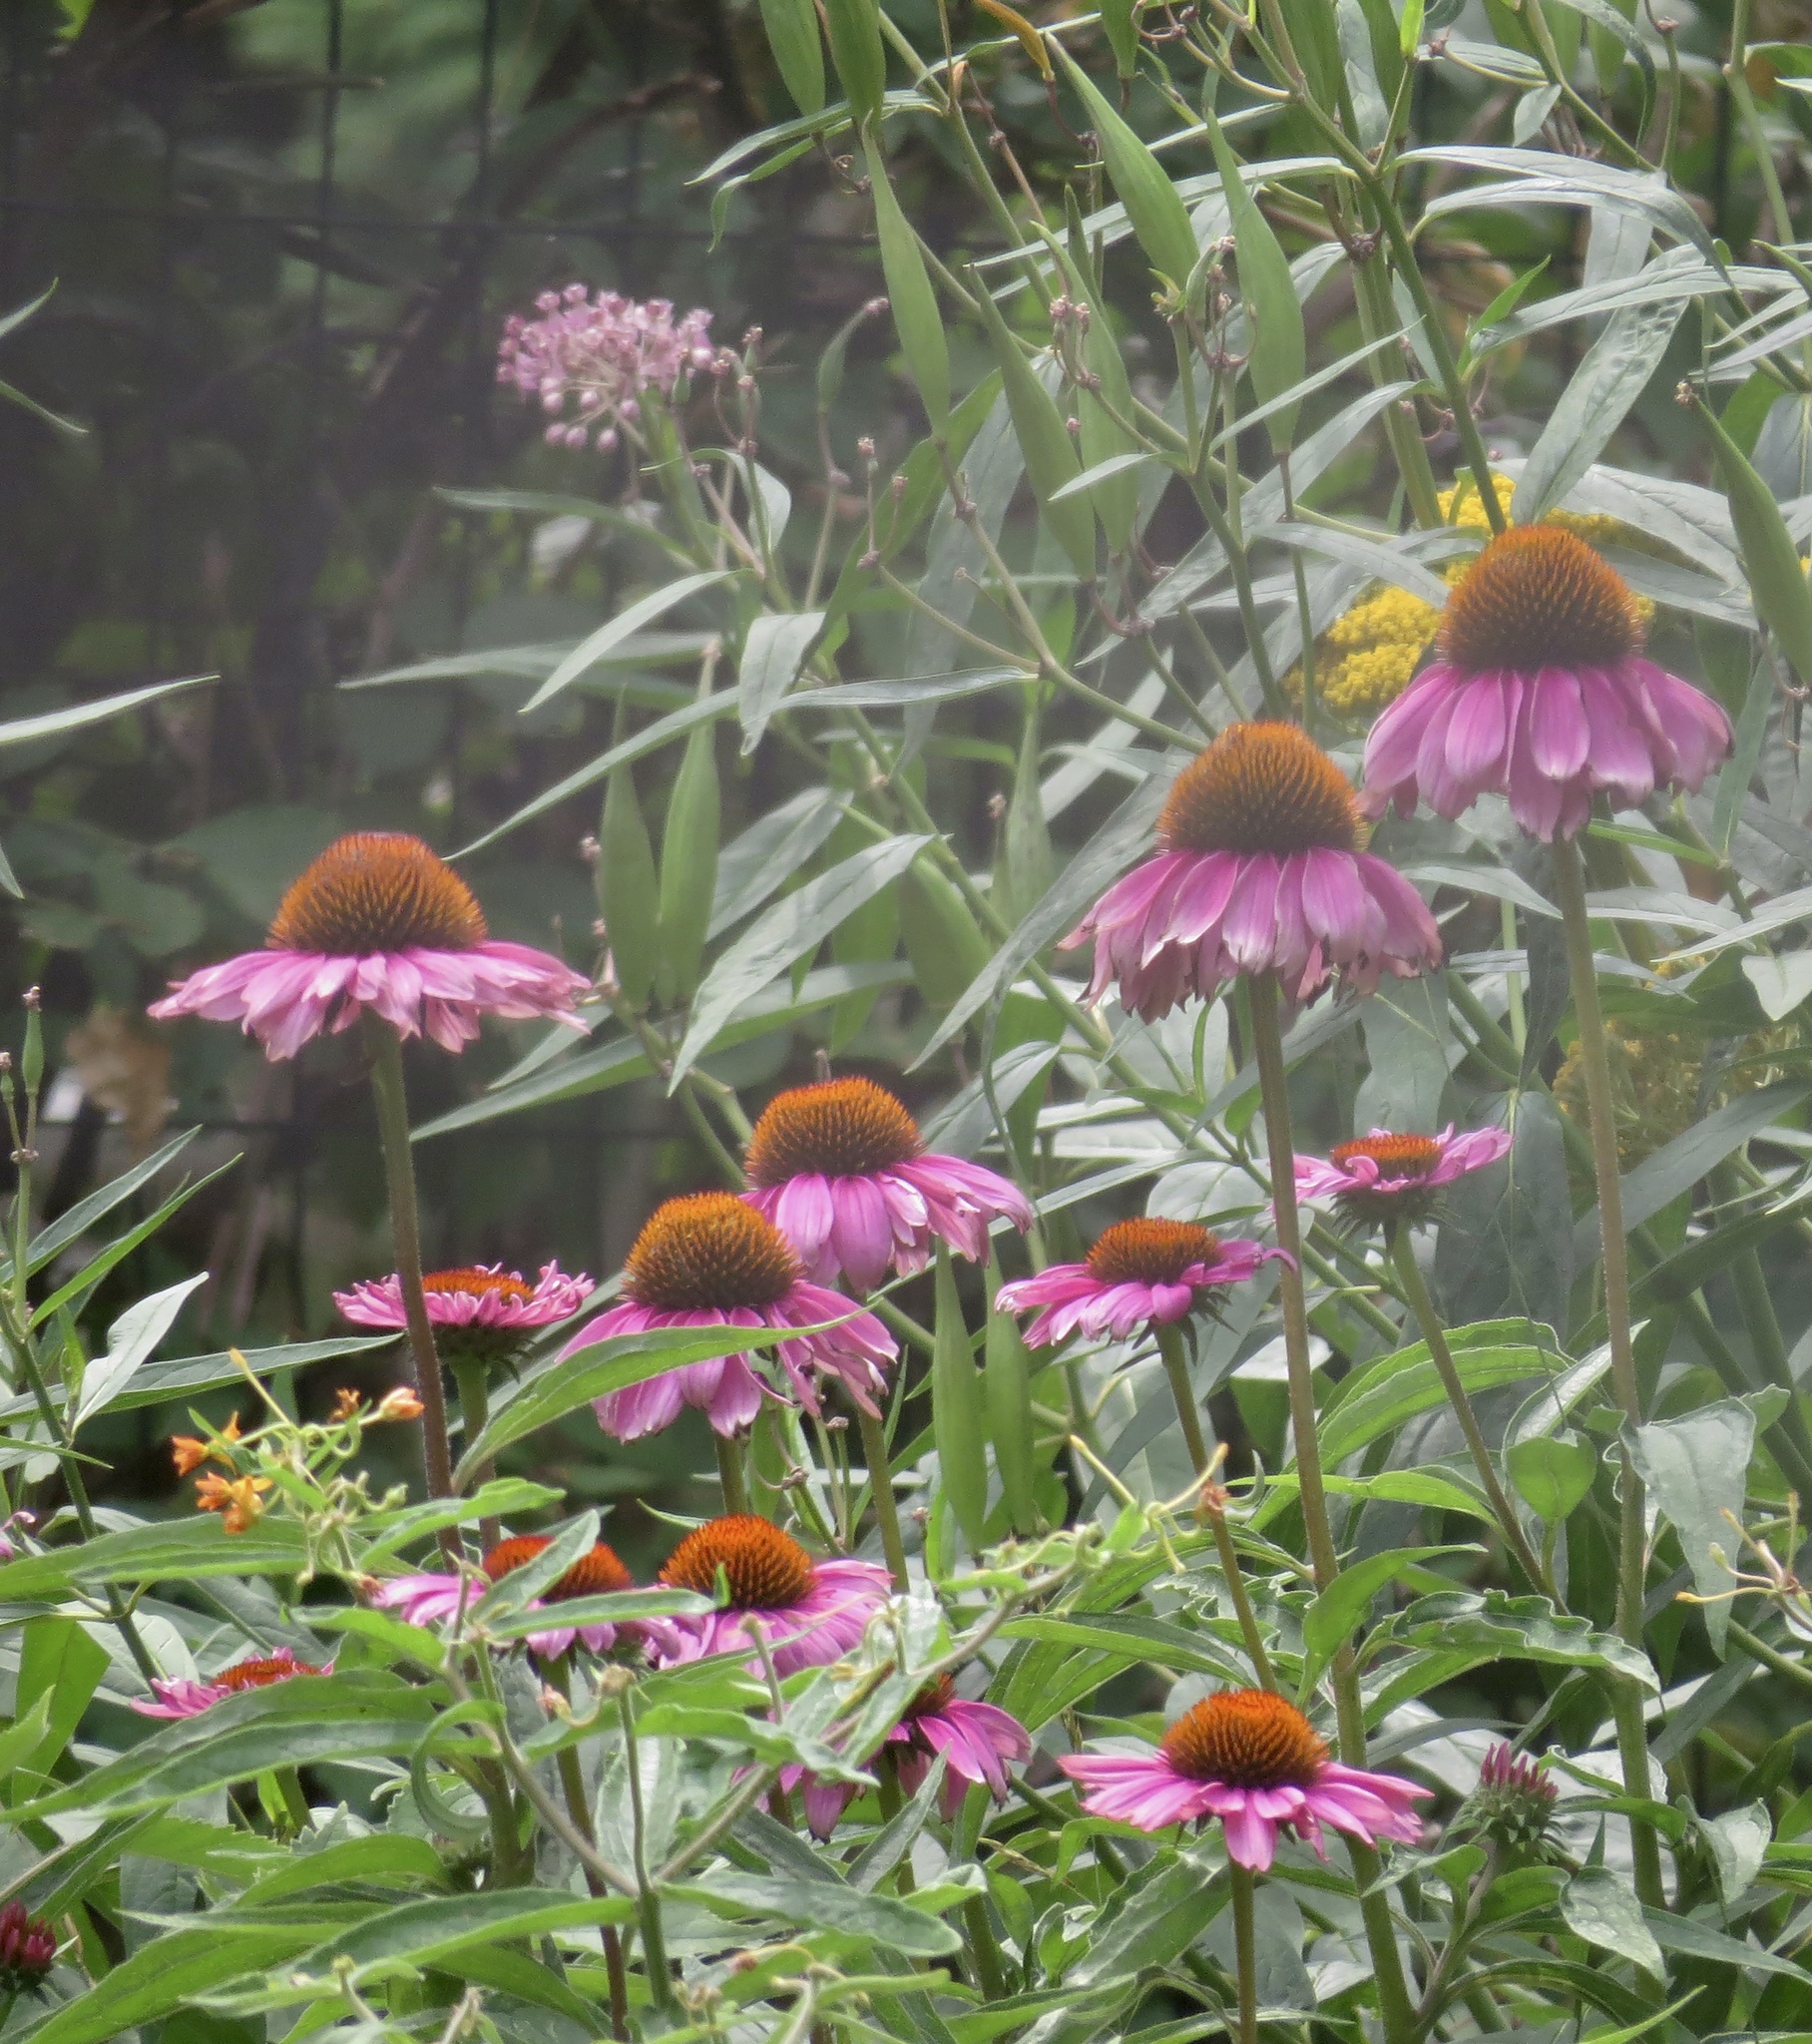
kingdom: Plantae
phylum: Tracheophyta
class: Magnoliopsida
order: Asterales
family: Asteraceae
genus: Echinacea
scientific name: Echinacea purpurea
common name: Broad-leaved purple coneflower
